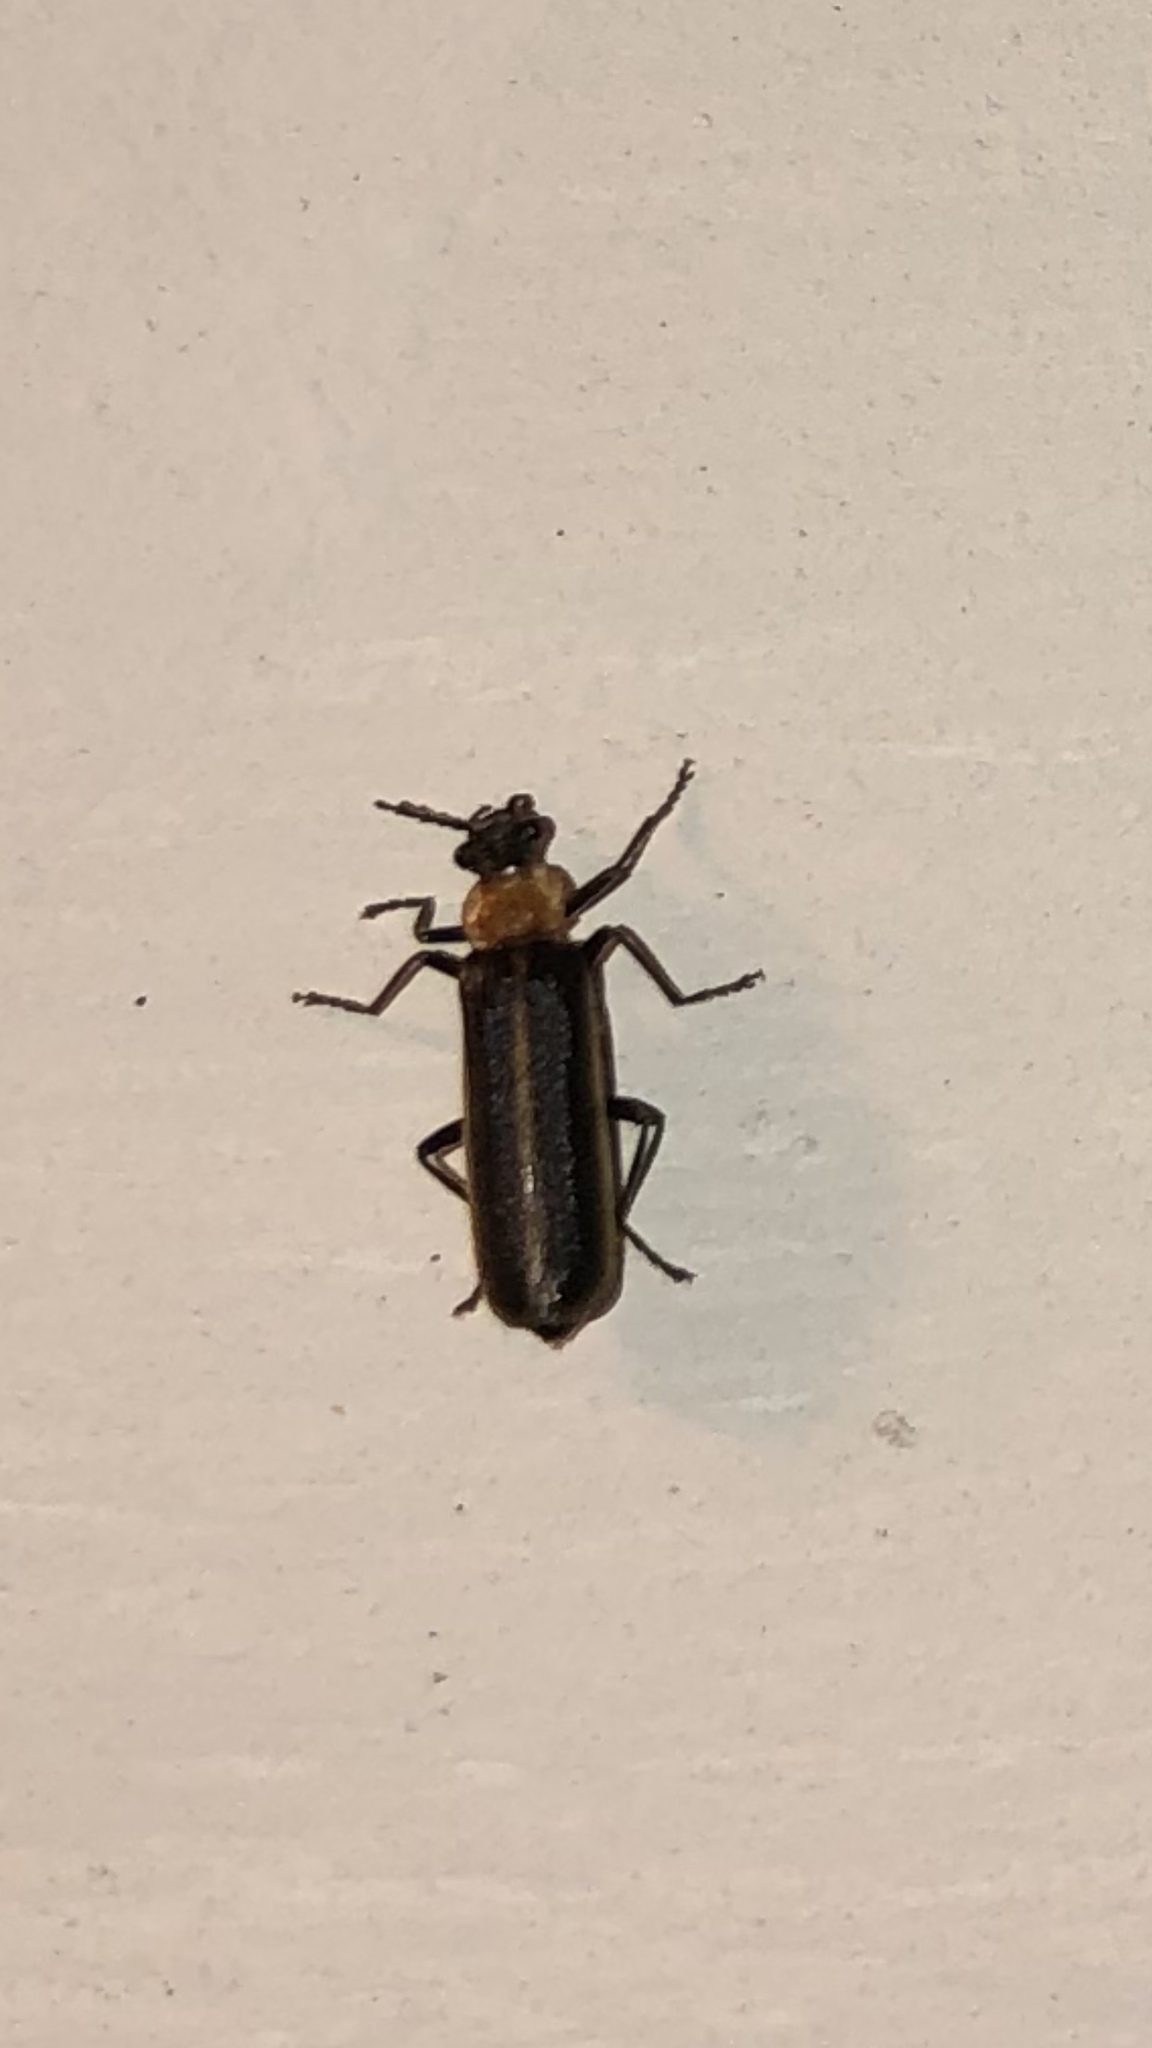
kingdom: Animalia
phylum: Arthropoda
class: Insecta
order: Coleoptera
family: Cantharidae
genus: Podabrus
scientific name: Podabrus flavicollis
